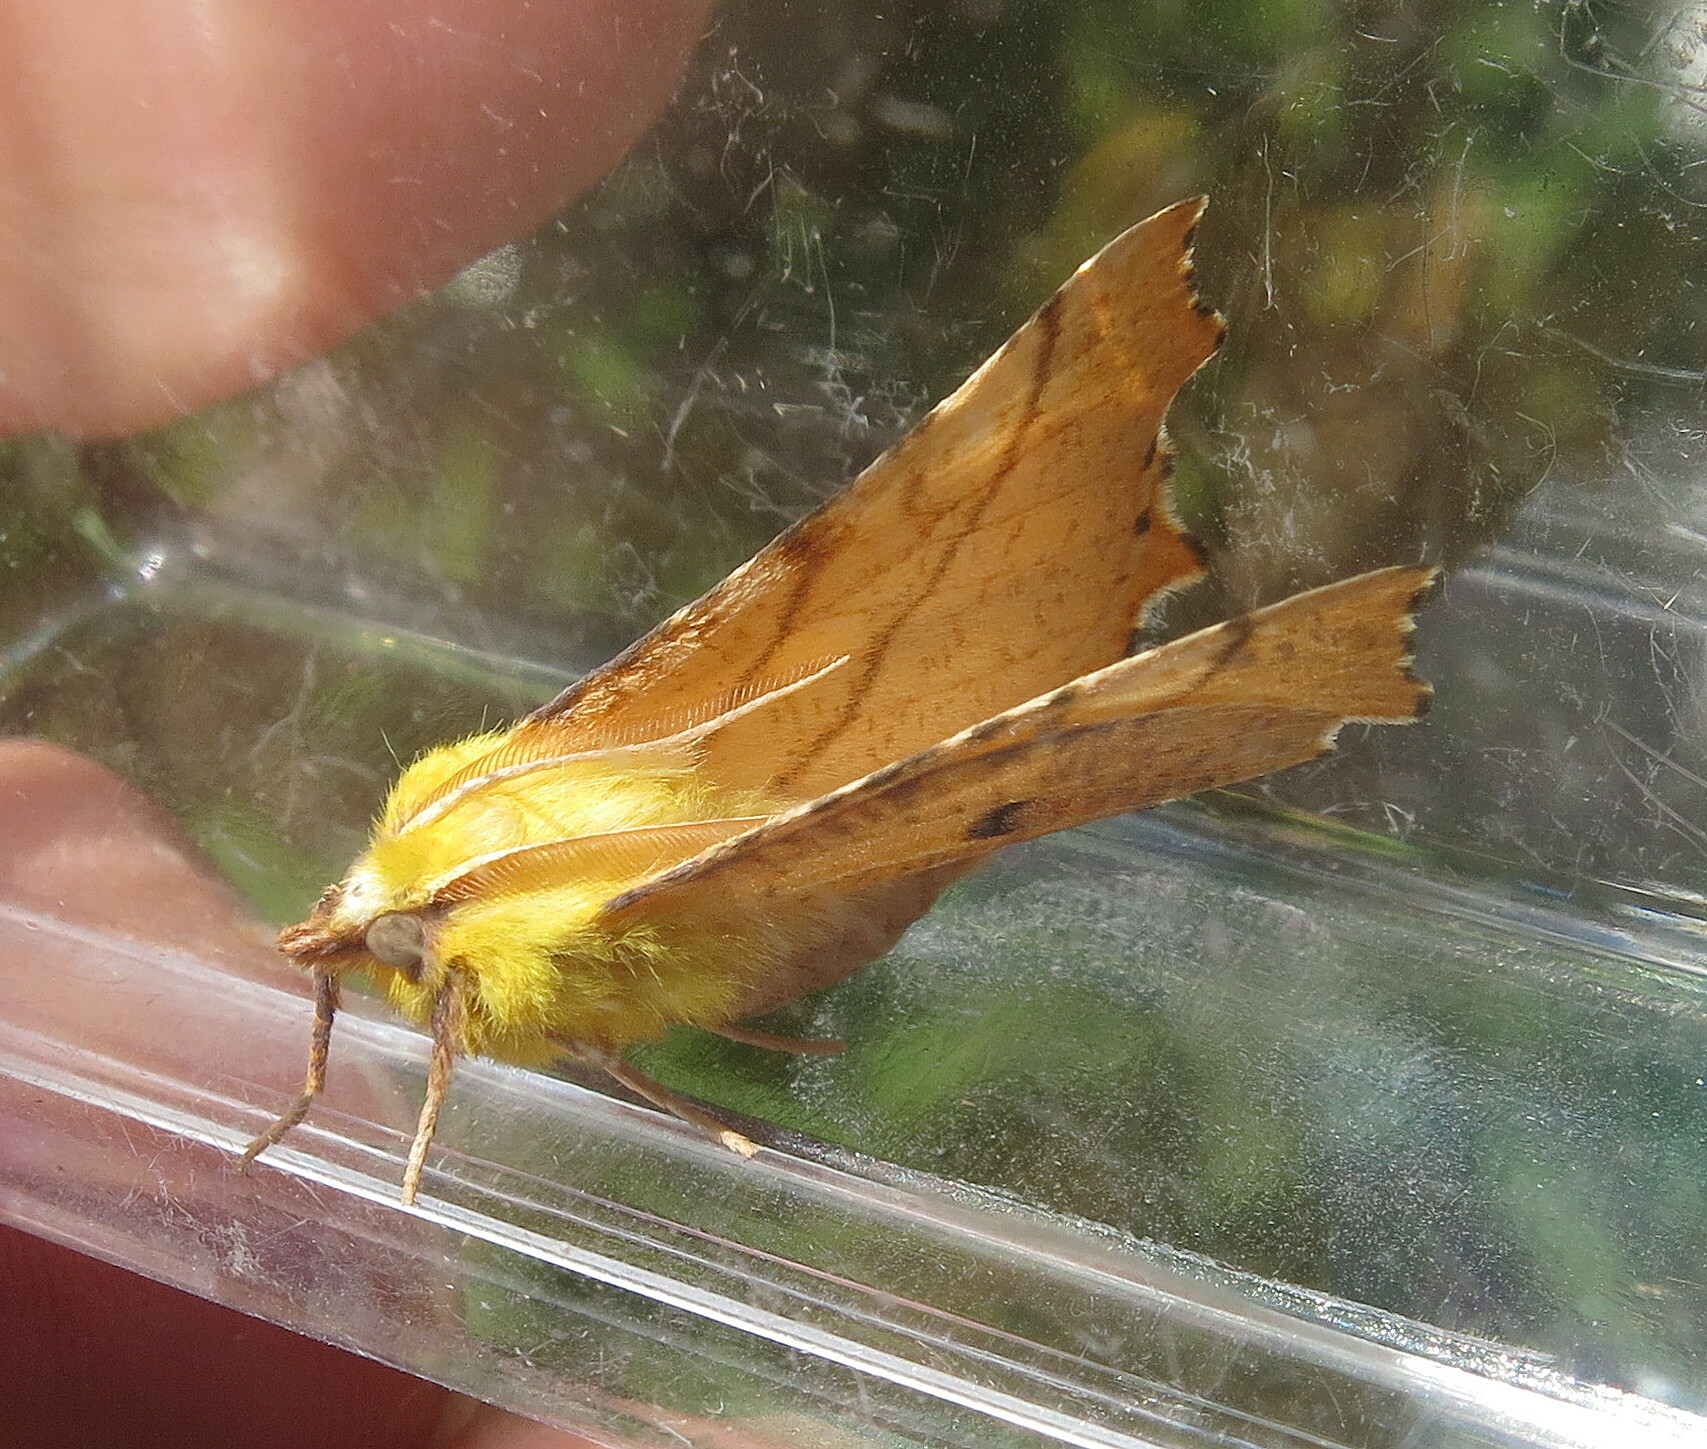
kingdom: Animalia
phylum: Arthropoda
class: Insecta
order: Lepidoptera
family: Geometridae
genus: Ennomos
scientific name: Ennomos alniaria
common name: Canary-shouldered thorn
